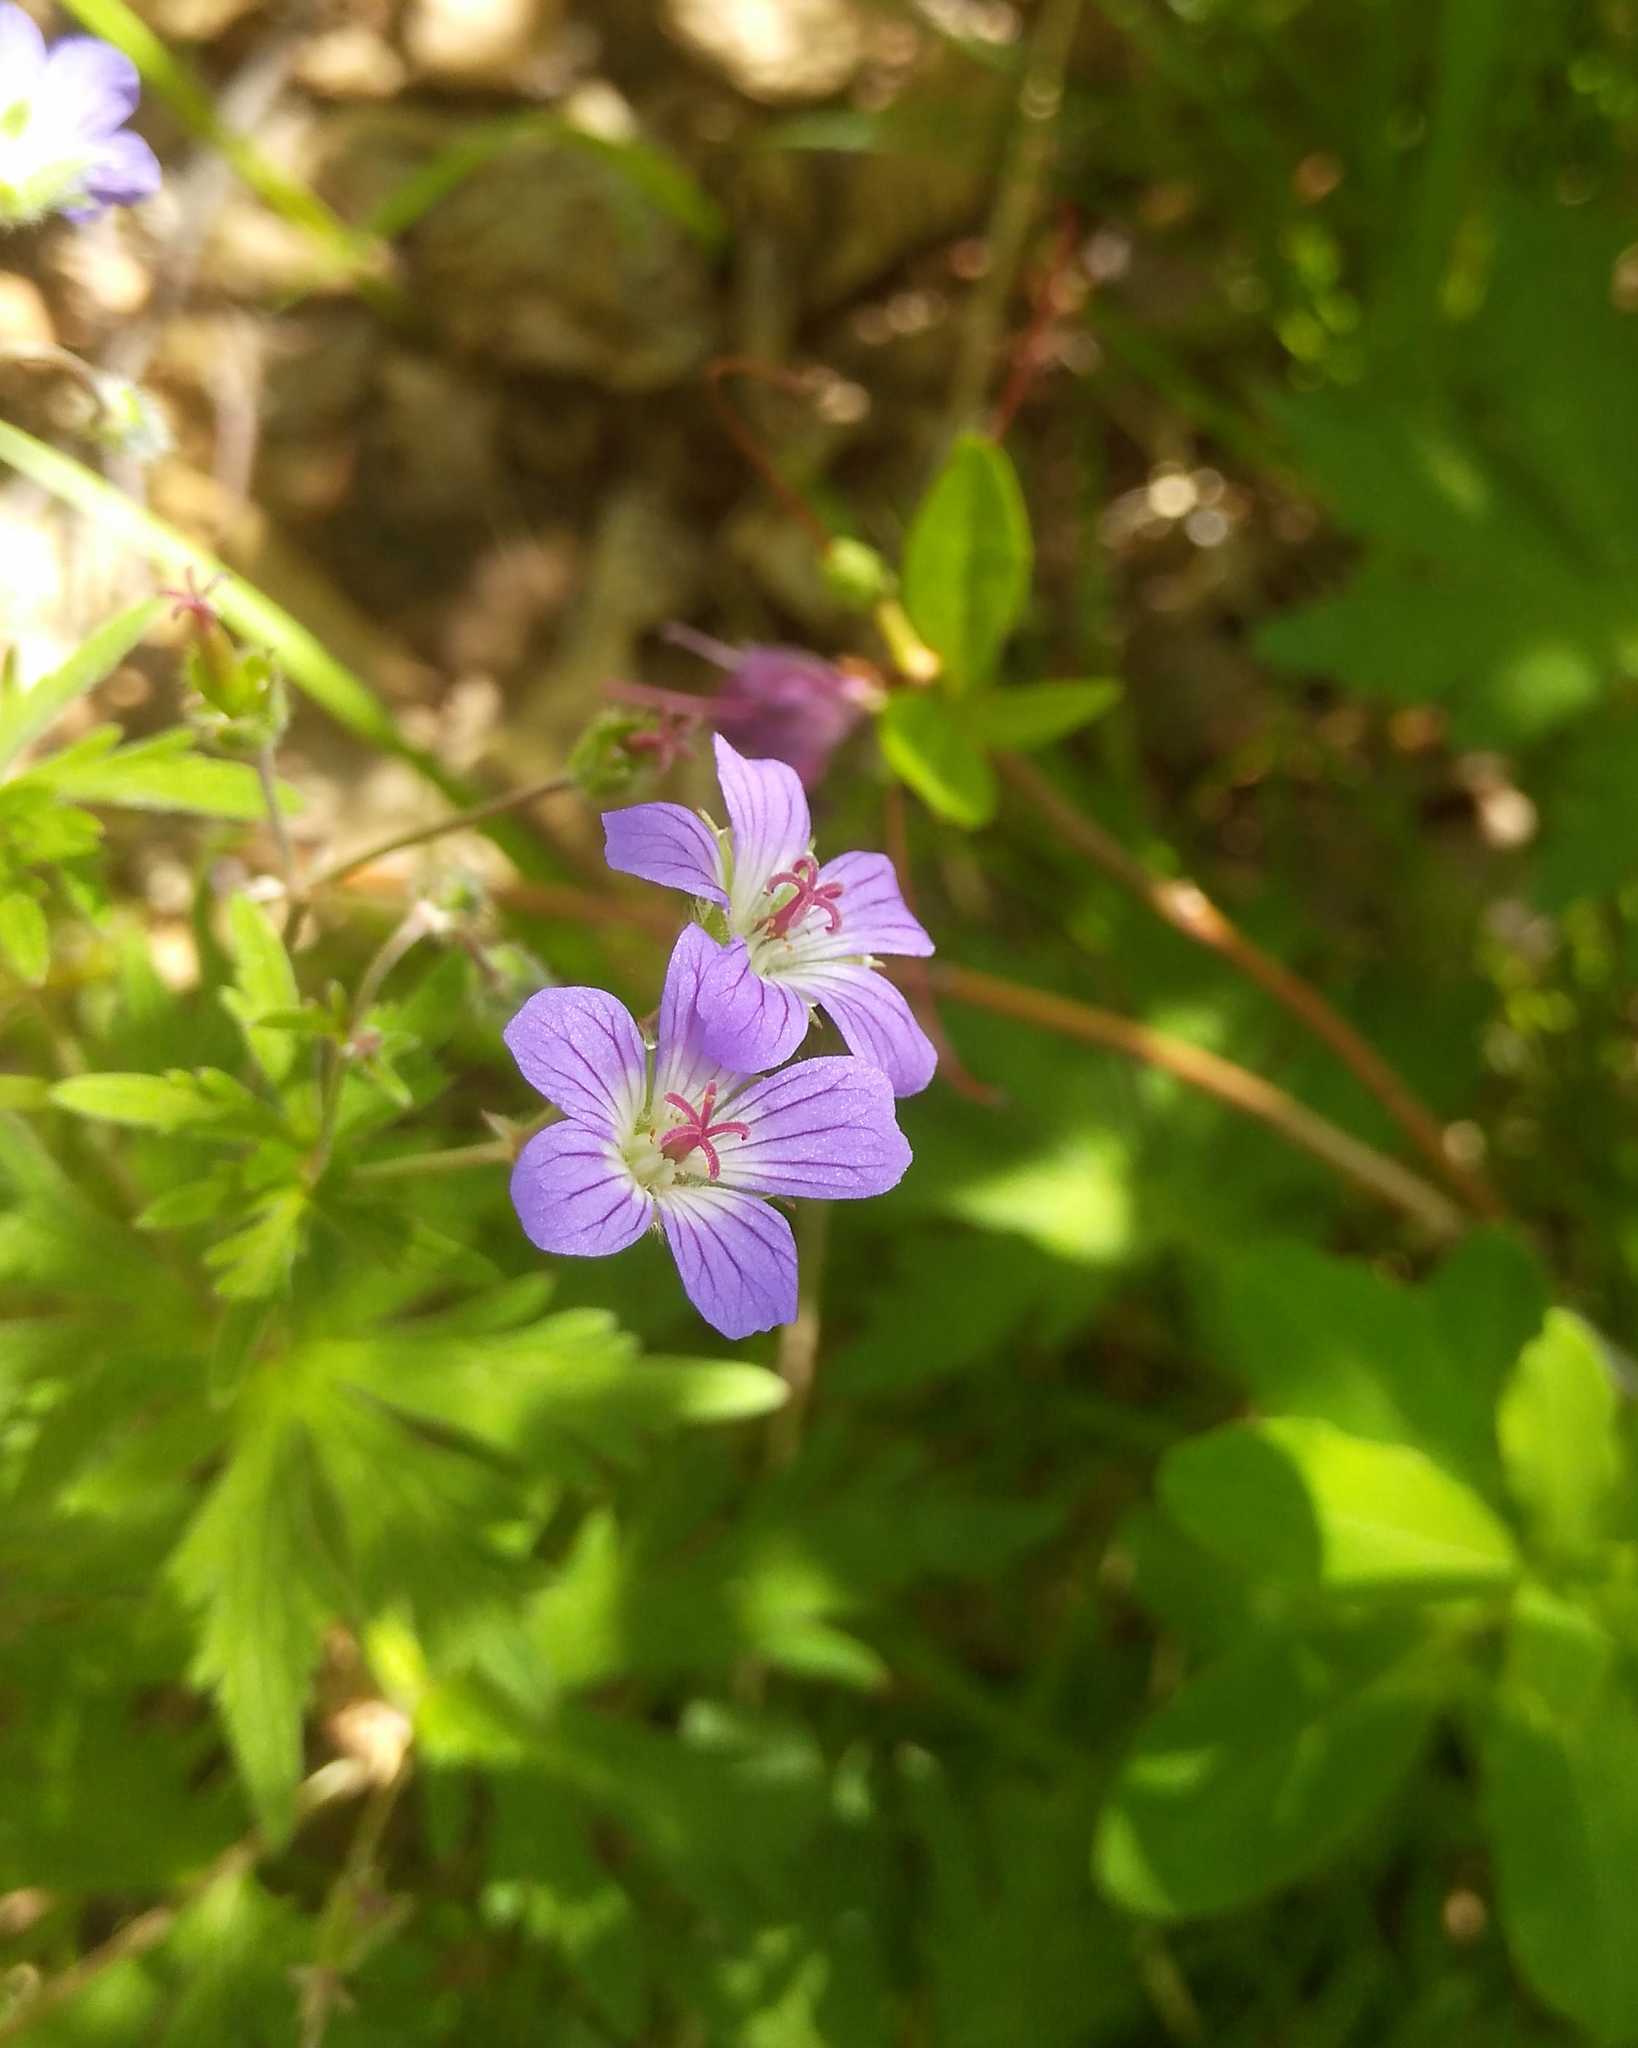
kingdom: Plantae
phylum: Tracheophyta
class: Magnoliopsida
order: Geraniales
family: Geraniaceae
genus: Geranium
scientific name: Geranium pseudosibiricum
